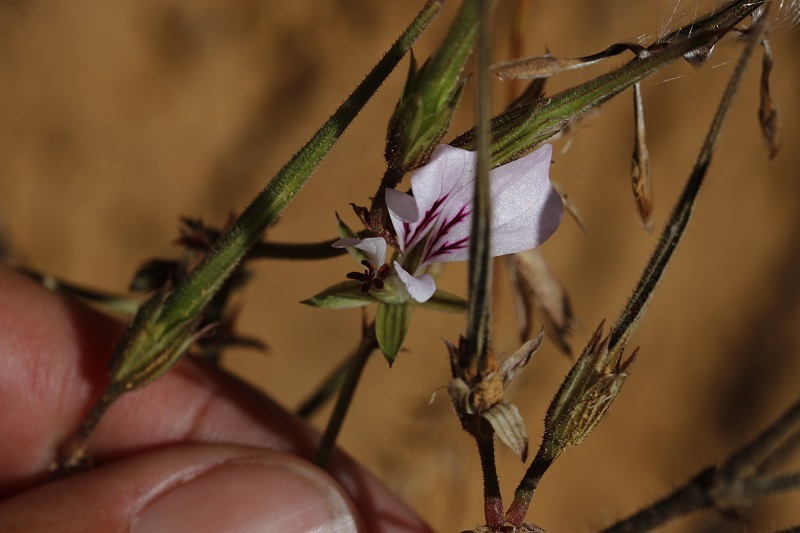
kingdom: Plantae
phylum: Tracheophyta
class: Magnoliopsida
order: Geraniales
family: Geraniaceae
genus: Pelargonium
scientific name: Pelargonium myrrhifolium
